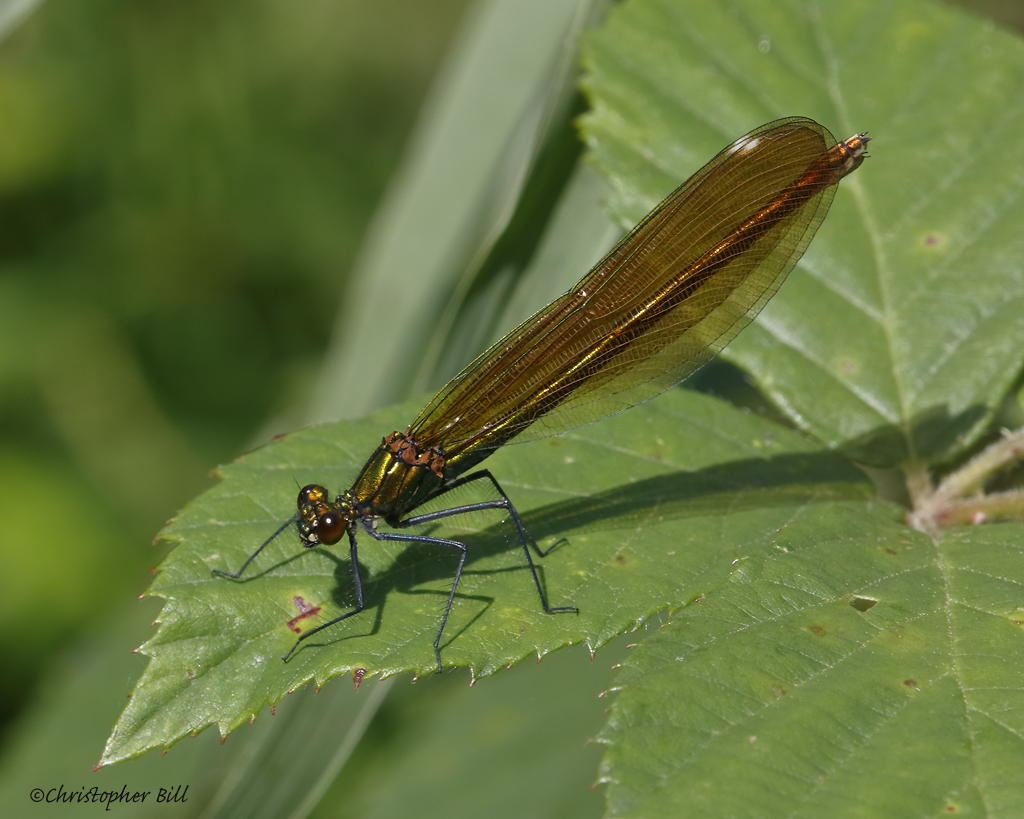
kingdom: Animalia
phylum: Arthropoda
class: Insecta
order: Odonata
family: Calopterygidae
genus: Calopteryx
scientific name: Calopteryx virgo
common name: Beautiful demoiselle
